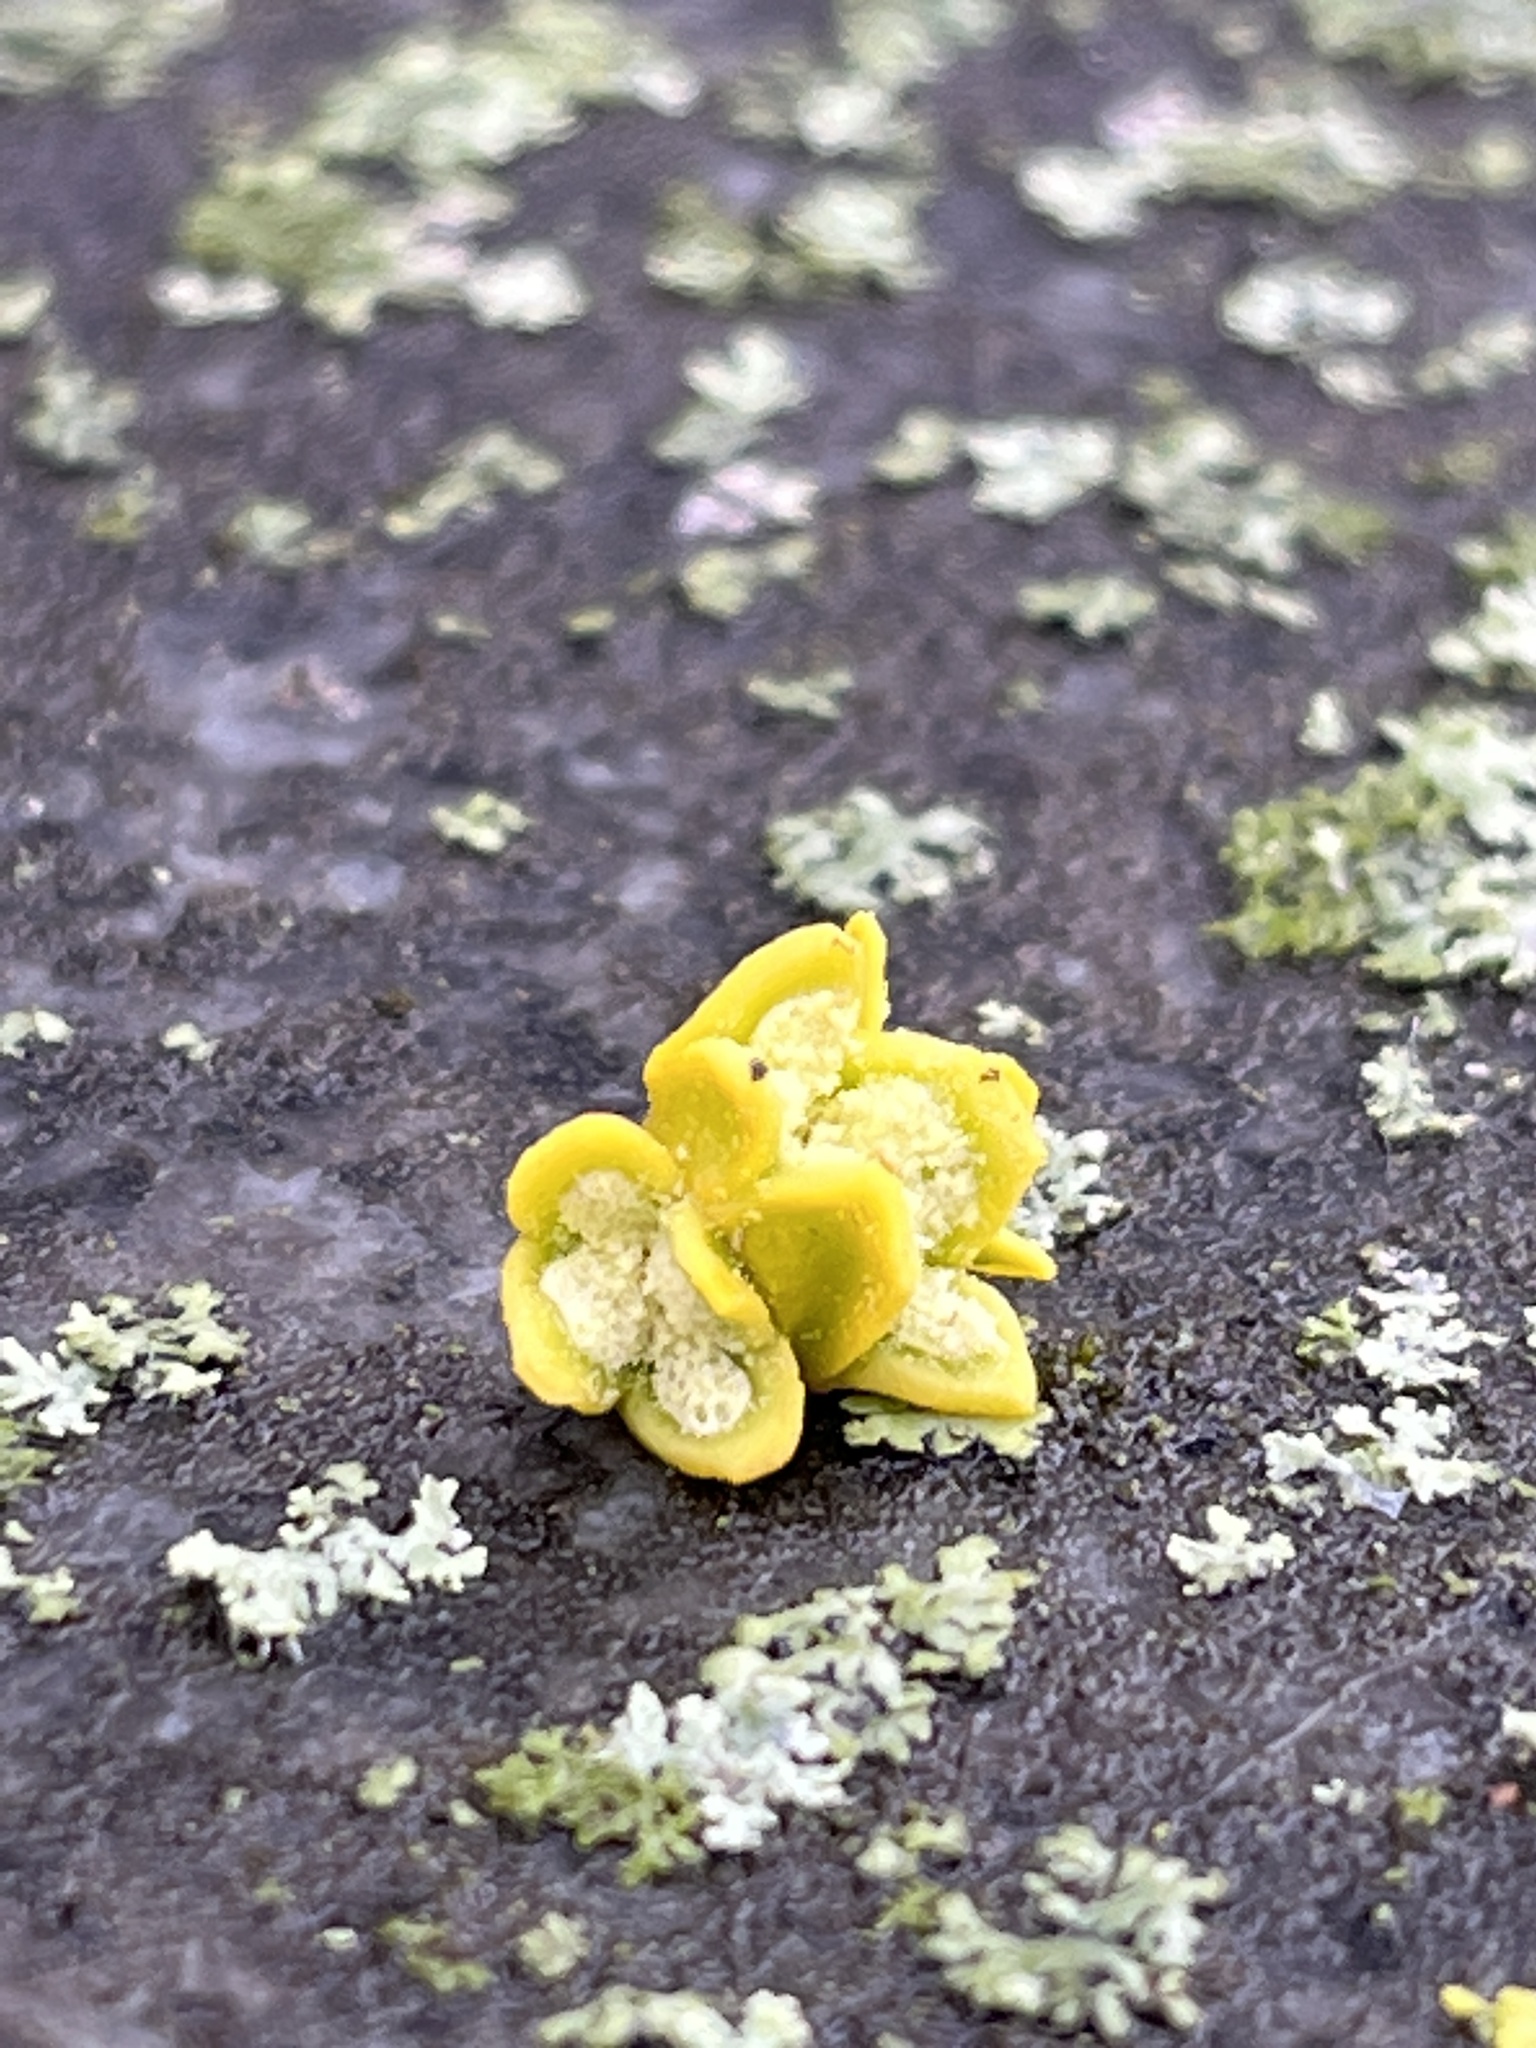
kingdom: Plantae
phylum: Tracheophyta
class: Magnoliopsida
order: Santalales
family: Viscaceae
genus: Viscum
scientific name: Viscum album
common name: Mistletoe
